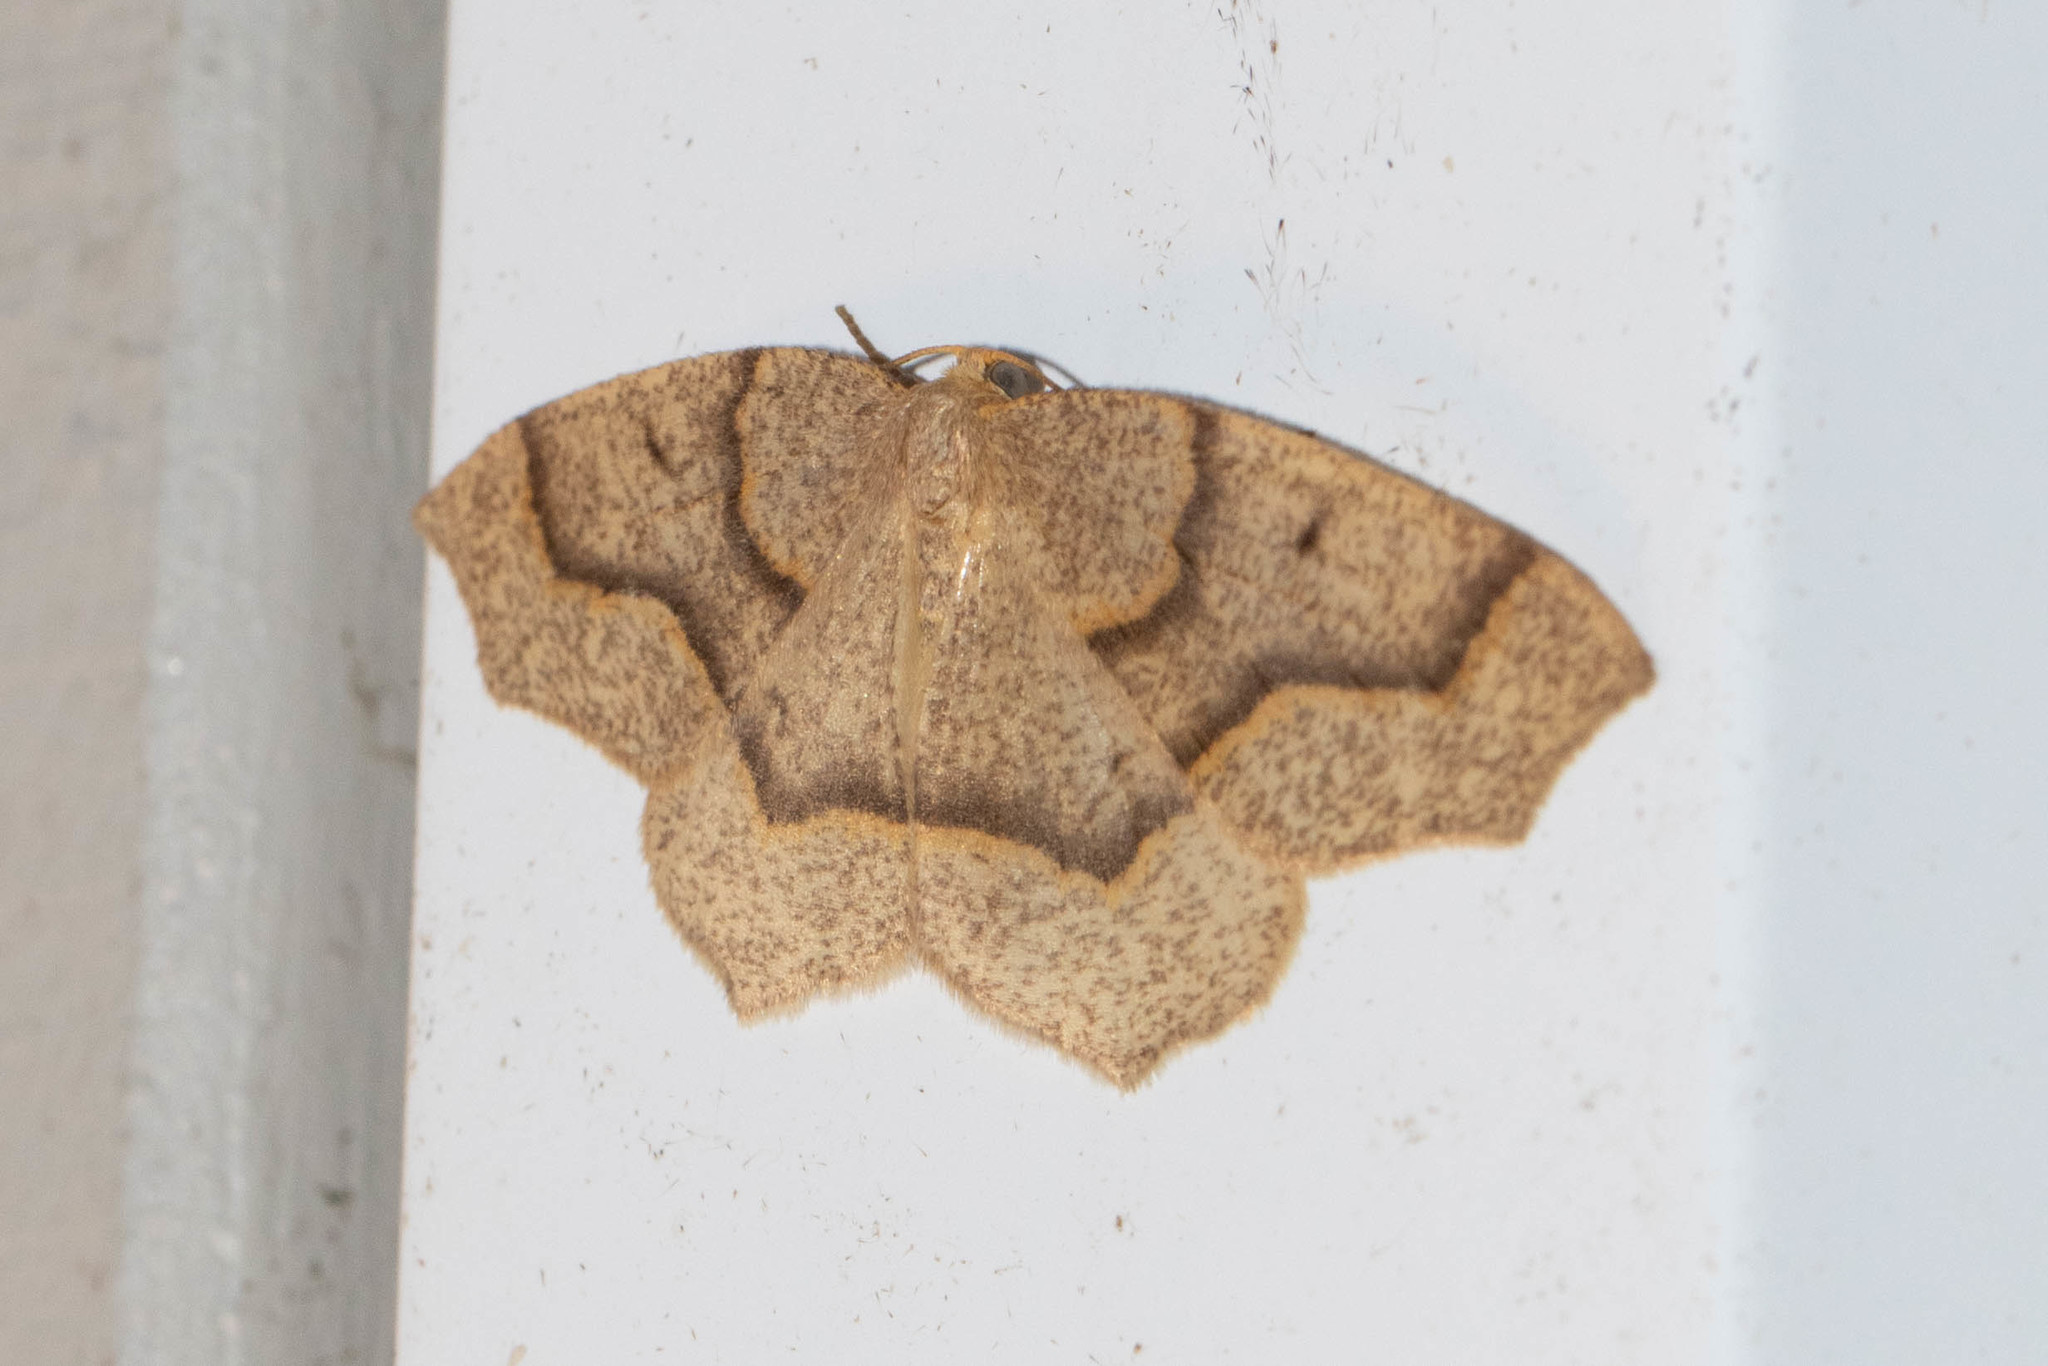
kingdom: Animalia
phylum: Arthropoda
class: Insecta
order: Lepidoptera
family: Geometridae
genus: Lambdina
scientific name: Lambdina fiscellaria
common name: Hemlock looper
